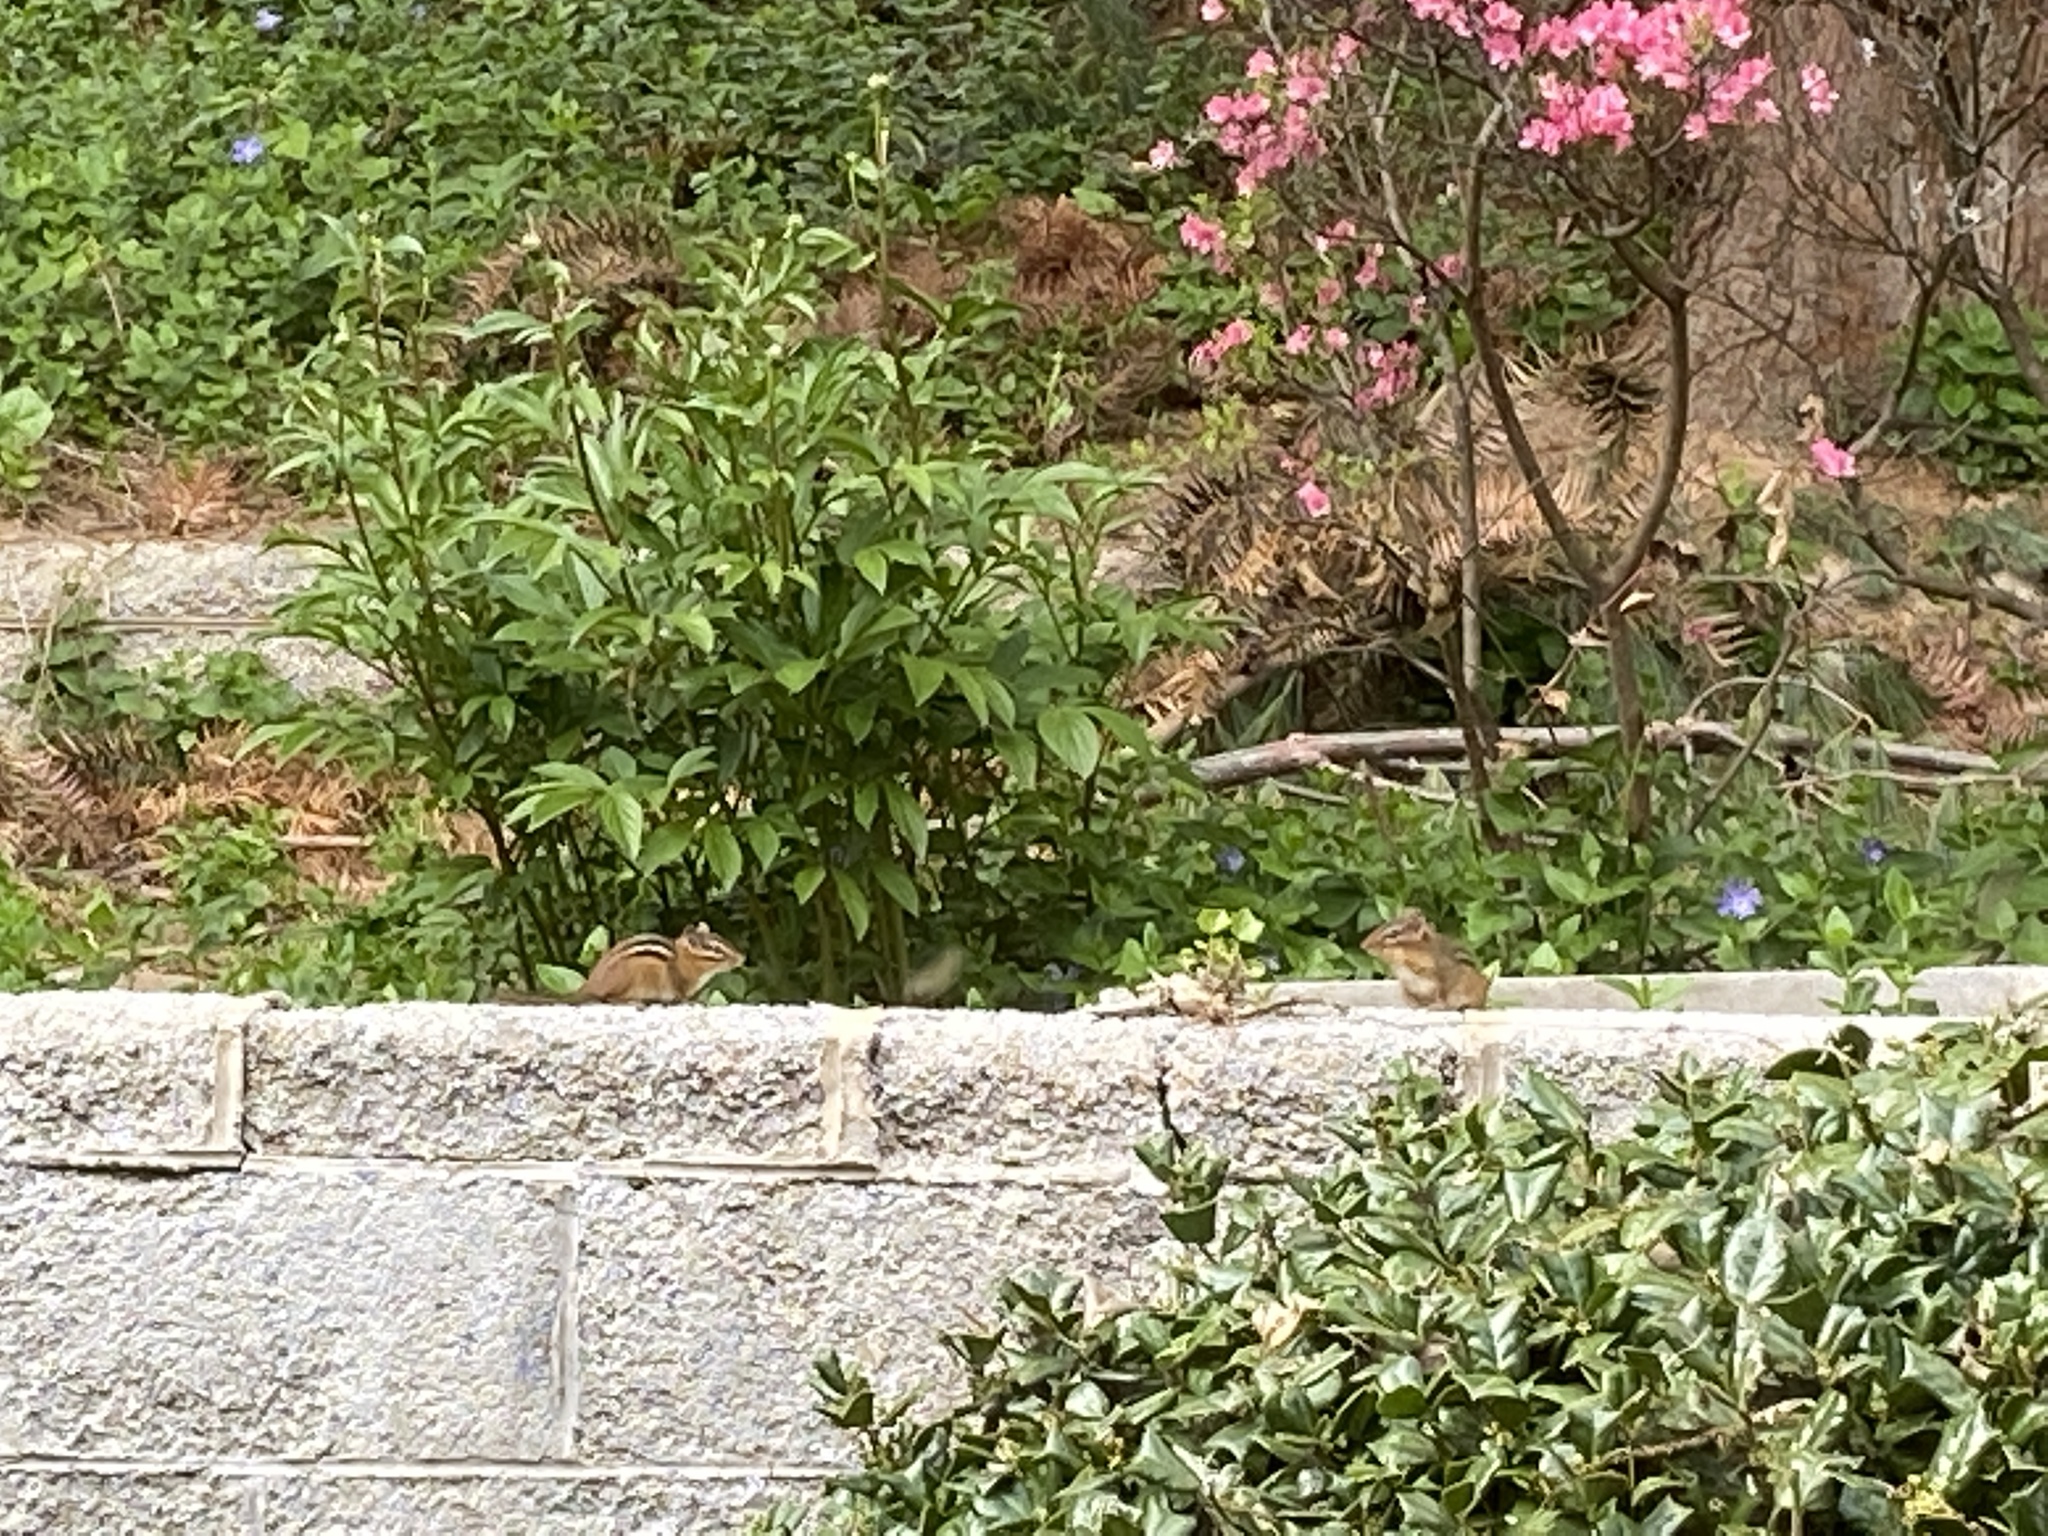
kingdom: Animalia
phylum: Chordata
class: Mammalia
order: Rodentia
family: Sciuridae
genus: Tamias
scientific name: Tamias striatus
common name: Eastern chipmunk
